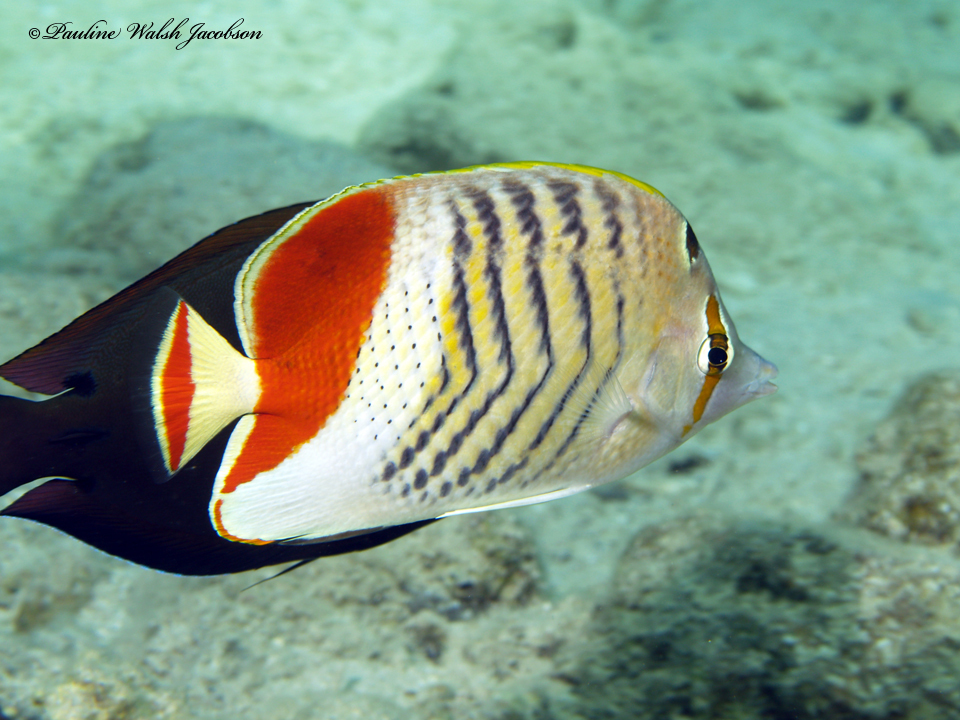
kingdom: Animalia
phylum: Chordata
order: Perciformes
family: Chaetodontidae
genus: Chaetodon
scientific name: Chaetodon paucifasciatus
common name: Crown butterflyfish
